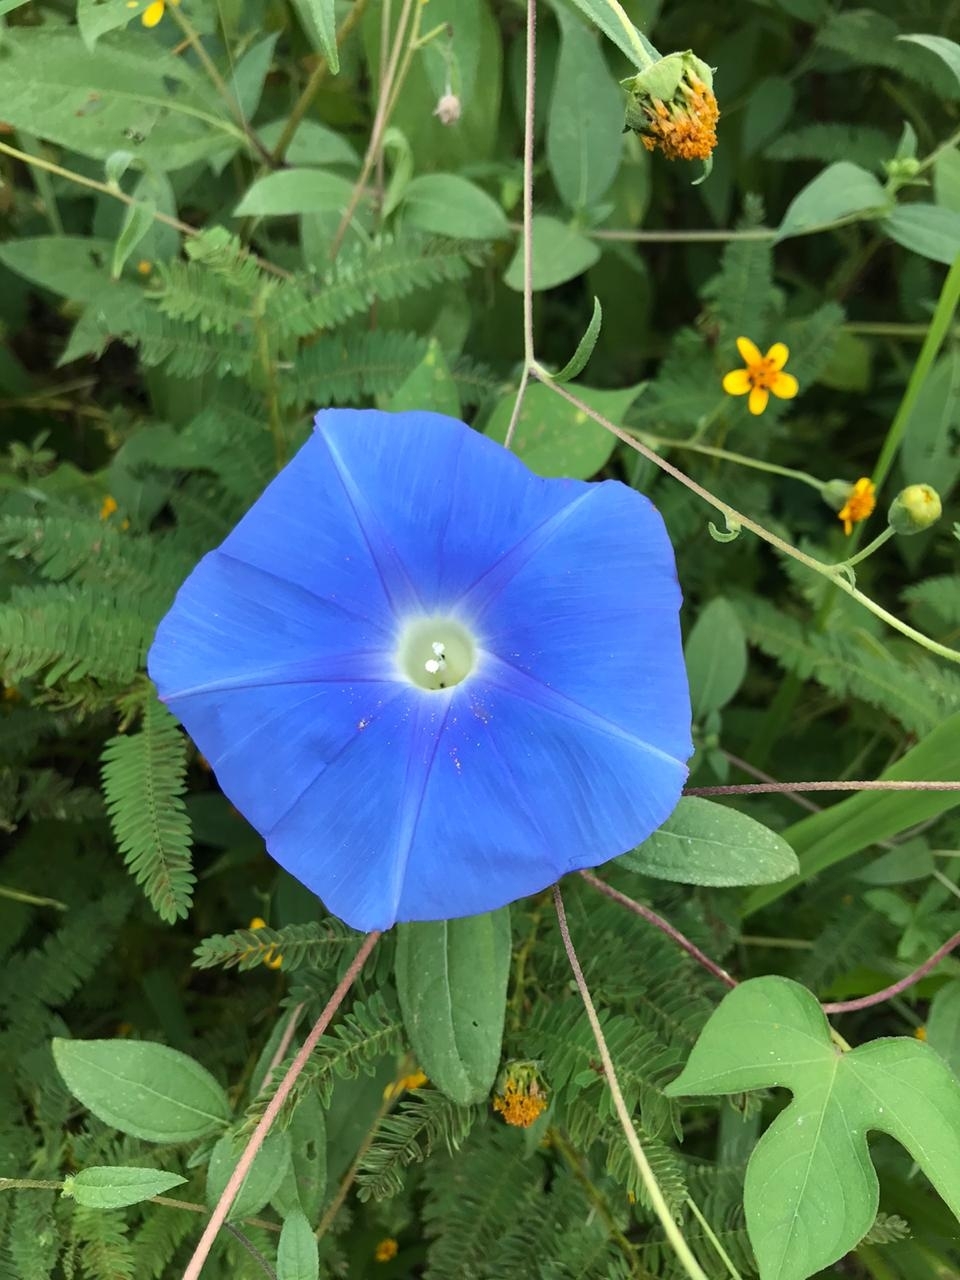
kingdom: Plantae
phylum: Tracheophyta
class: Magnoliopsida
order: Solanales
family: Convolvulaceae
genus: Ipomoea
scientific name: Ipomoea nil
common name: Japanese morning-glory
